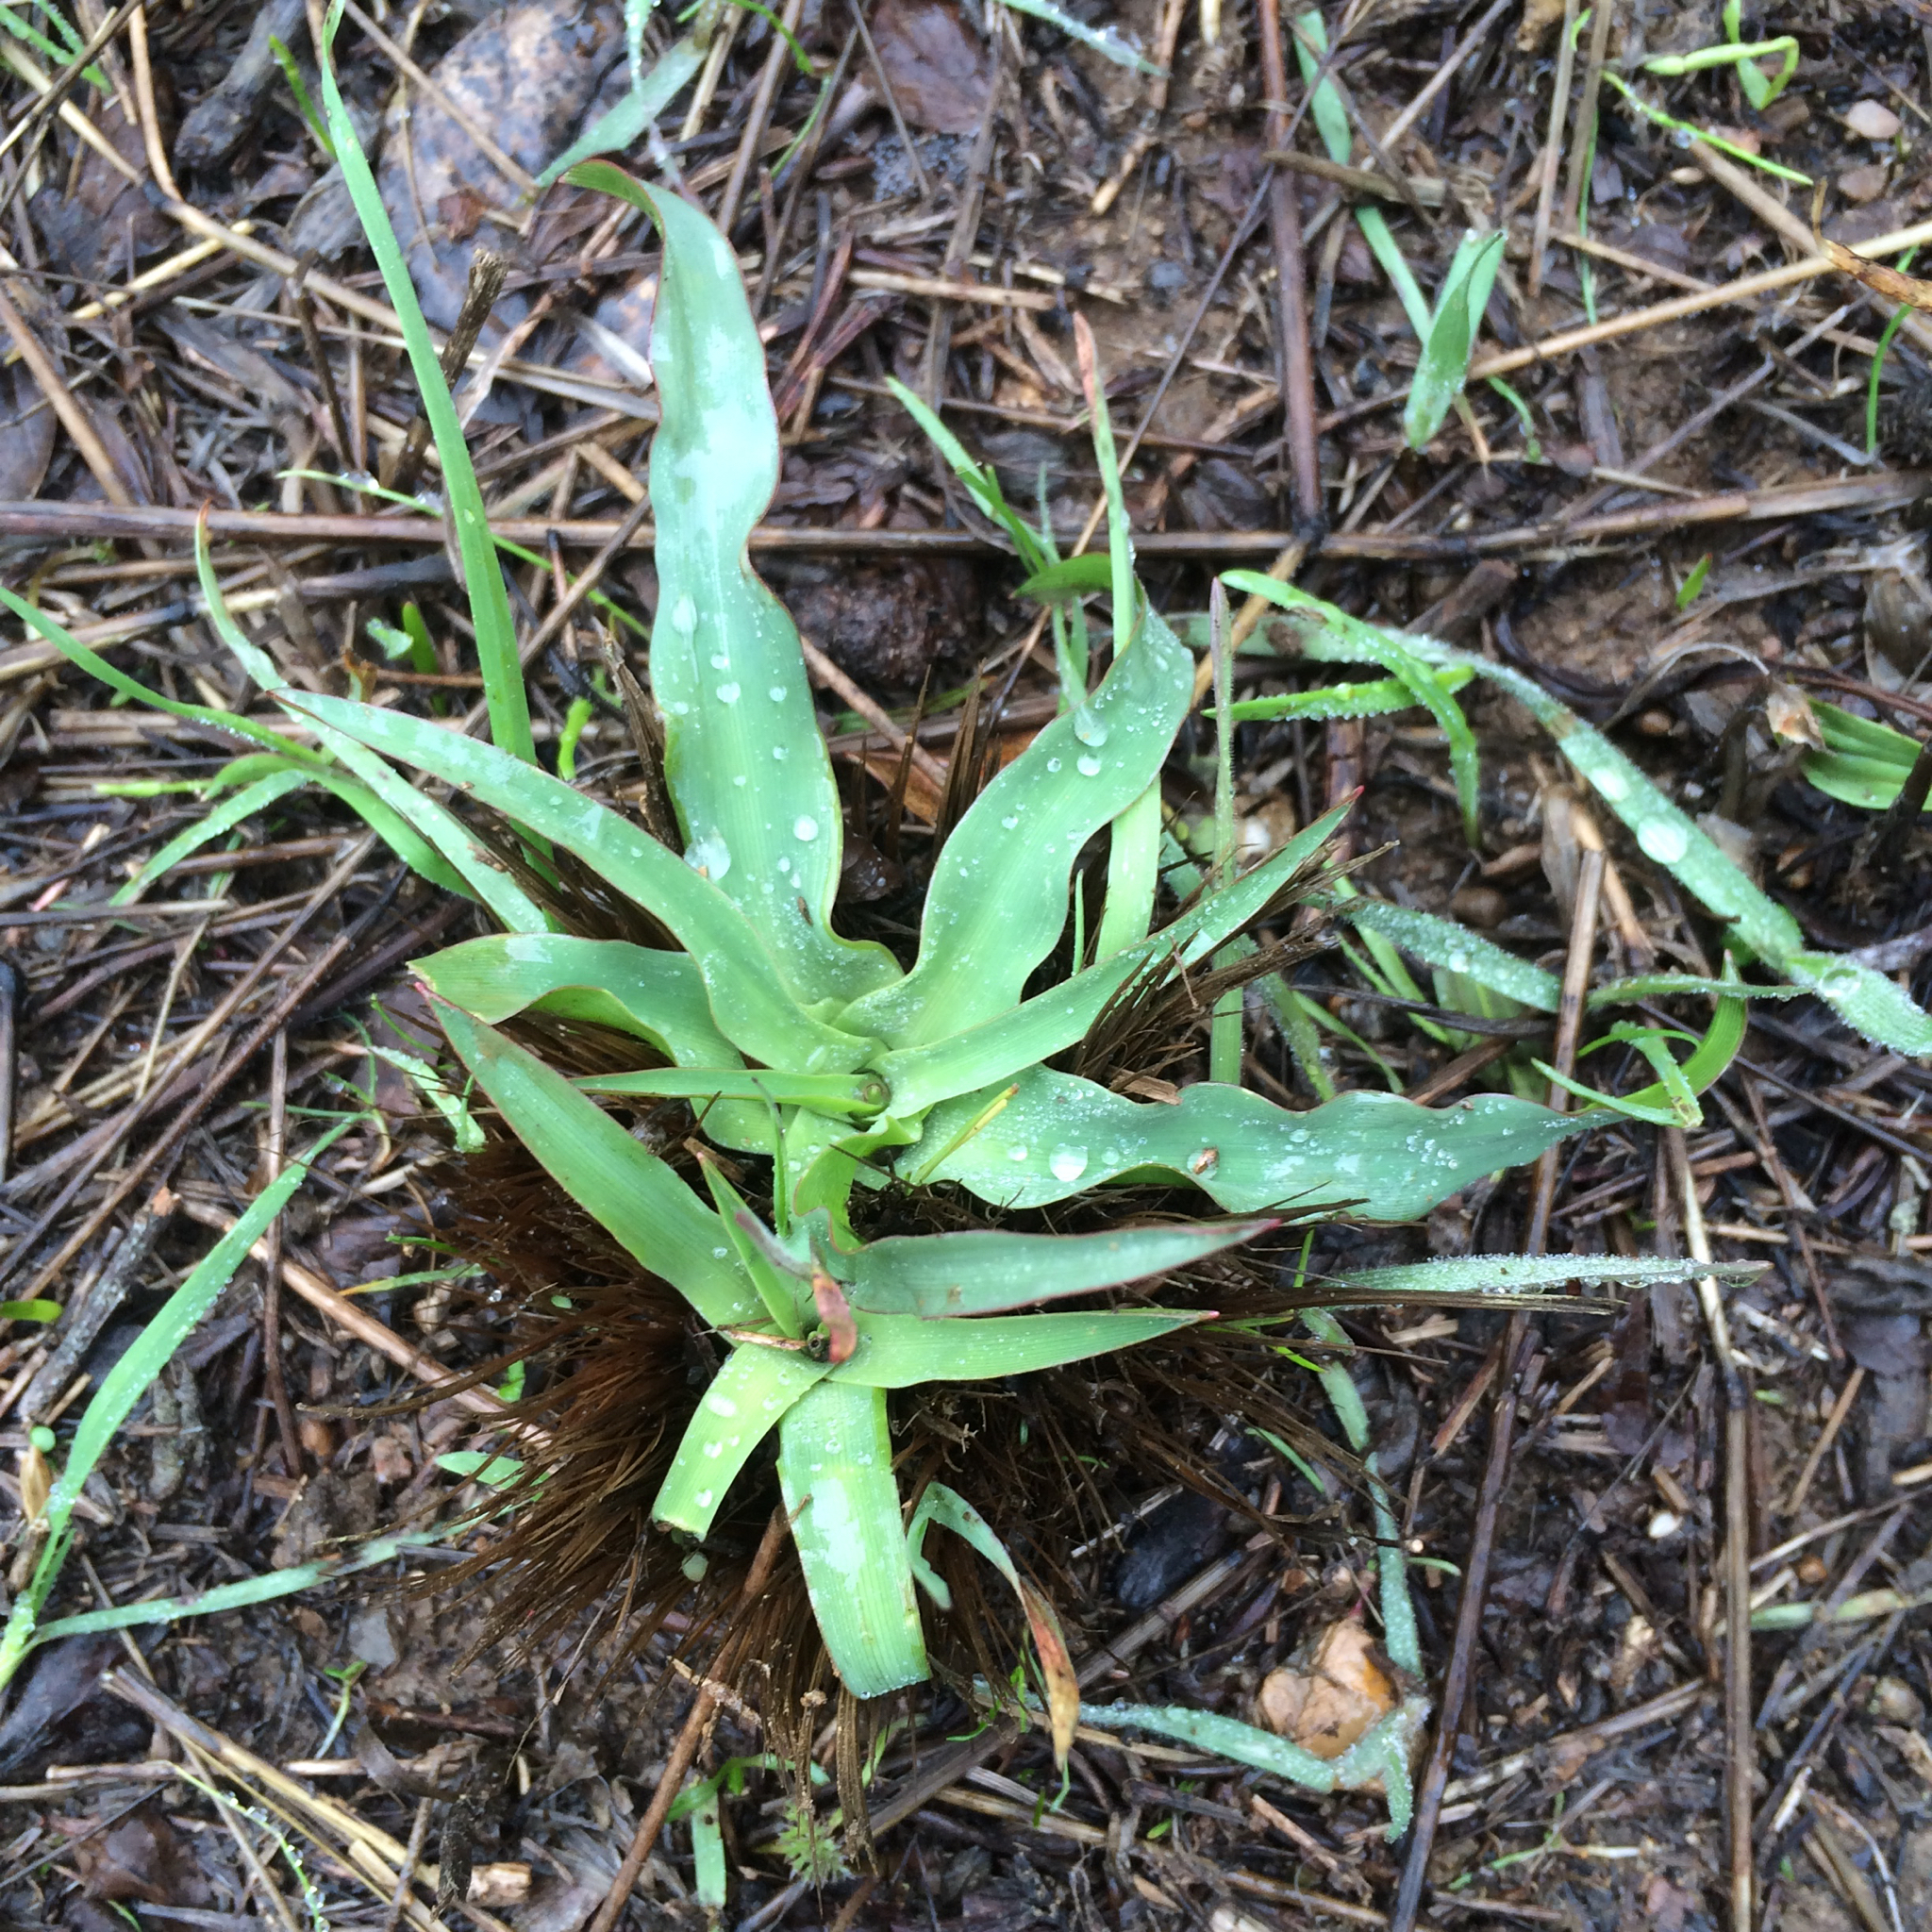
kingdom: Plantae
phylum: Tracheophyta
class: Liliopsida
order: Asparagales
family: Asparagaceae
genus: Chlorogalum
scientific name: Chlorogalum pomeridianum
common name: Amole
